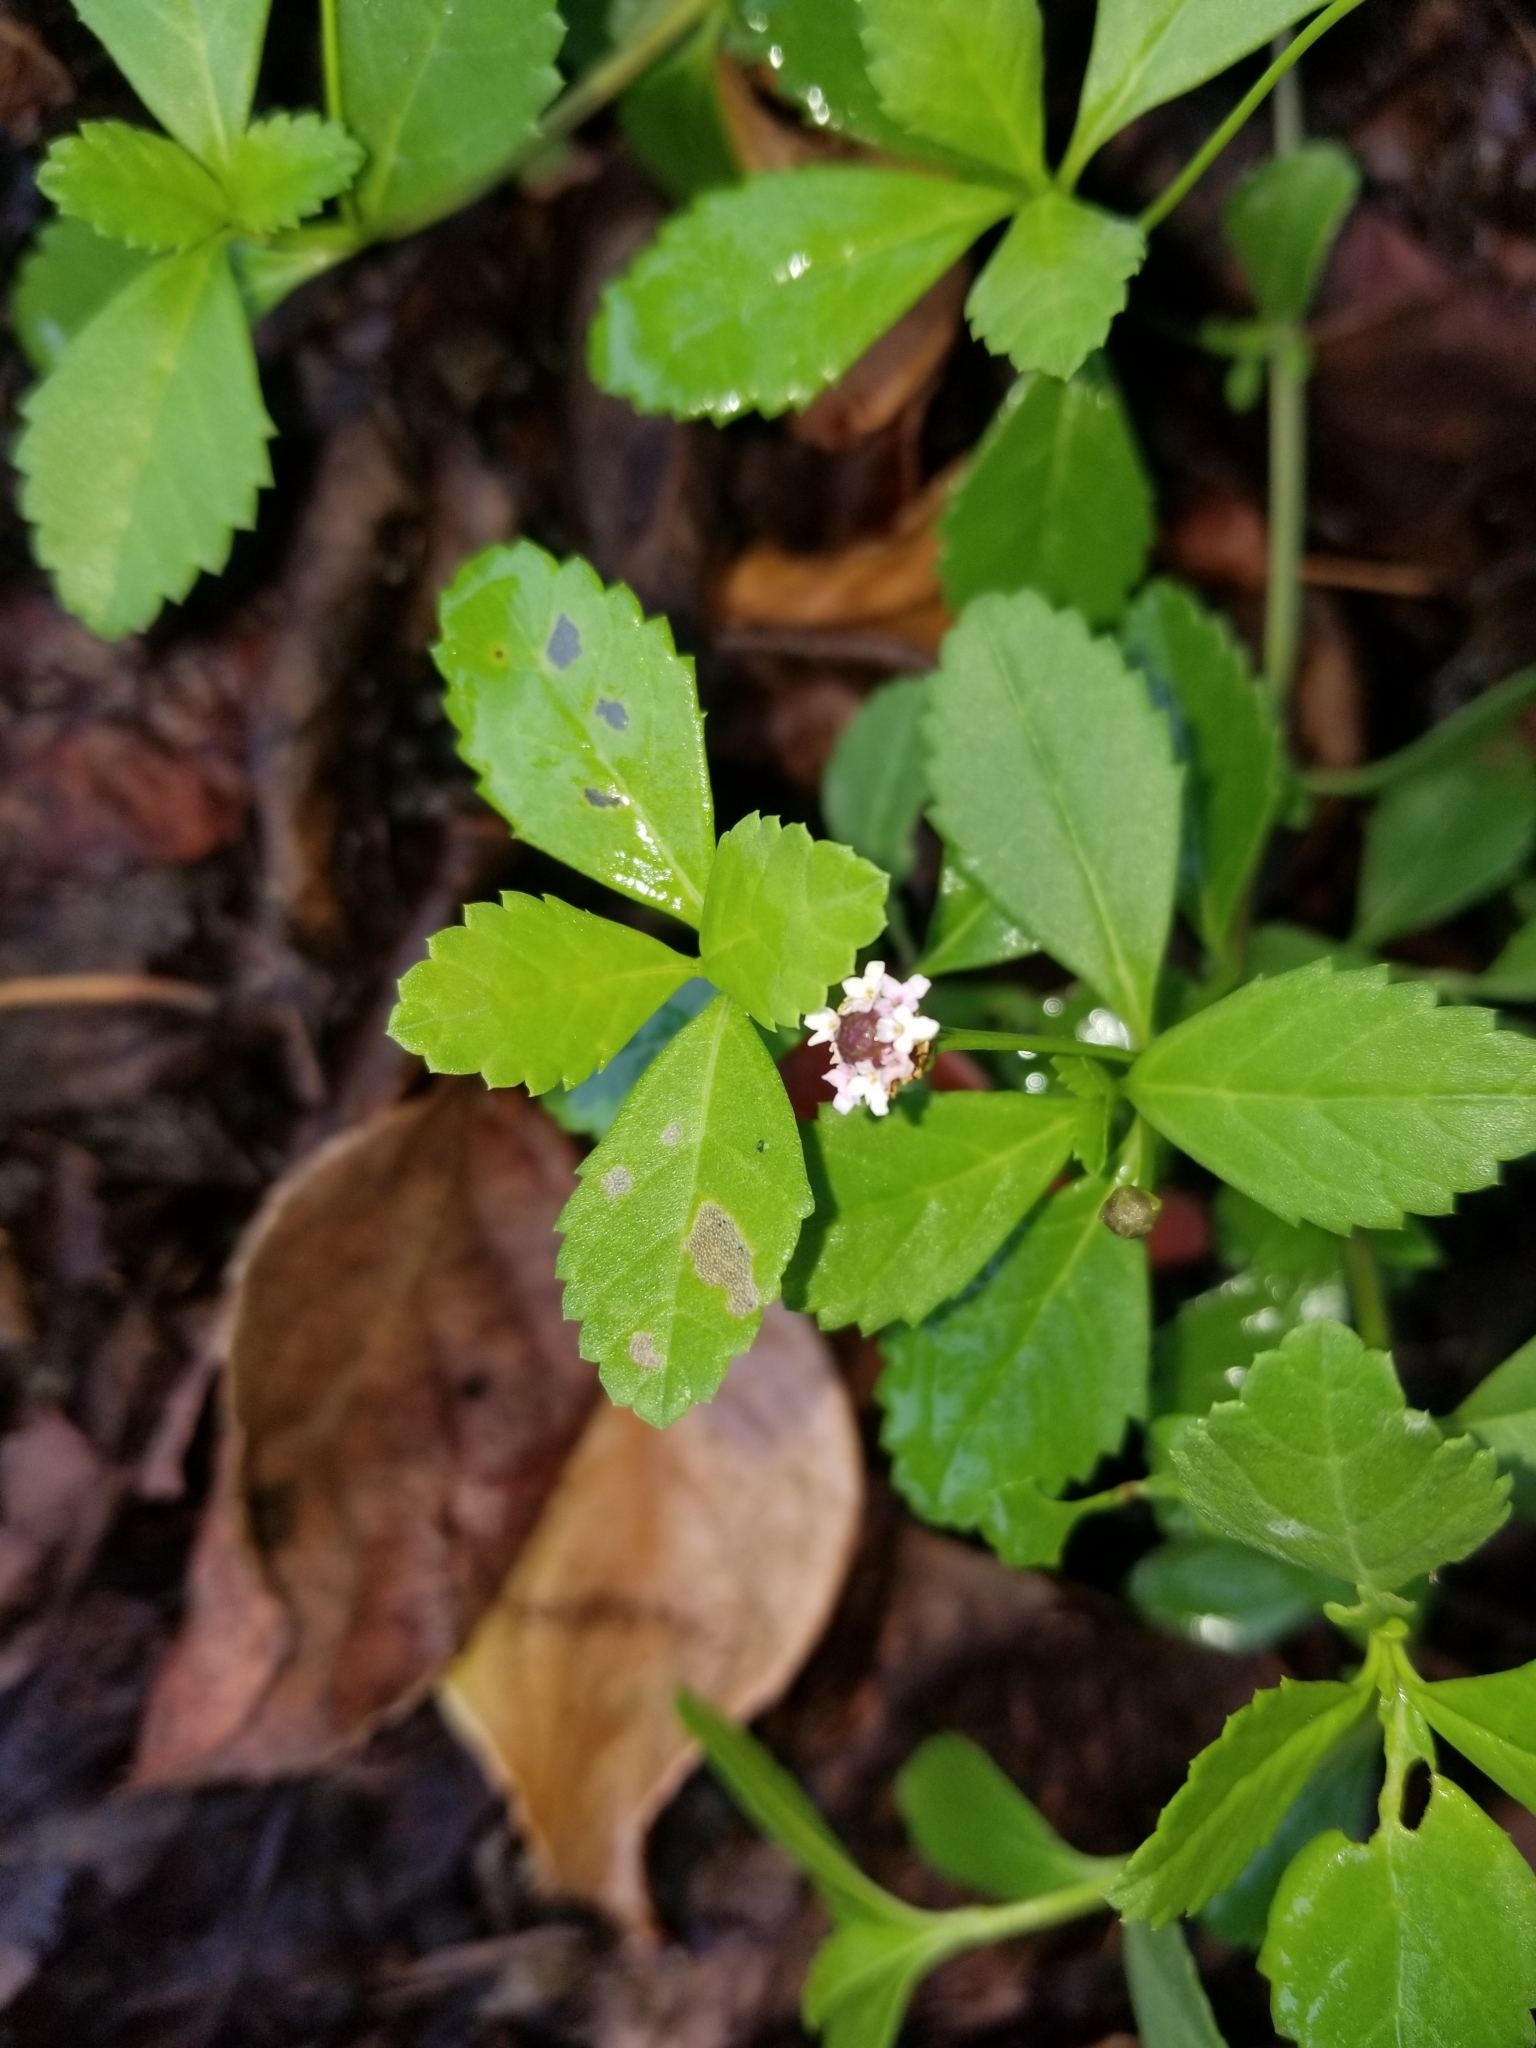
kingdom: Plantae
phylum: Tracheophyta
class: Magnoliopsida
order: Lamiales
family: Verbenaceae
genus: Phyla
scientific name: Phyla nodiflora
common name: Frogfruit
